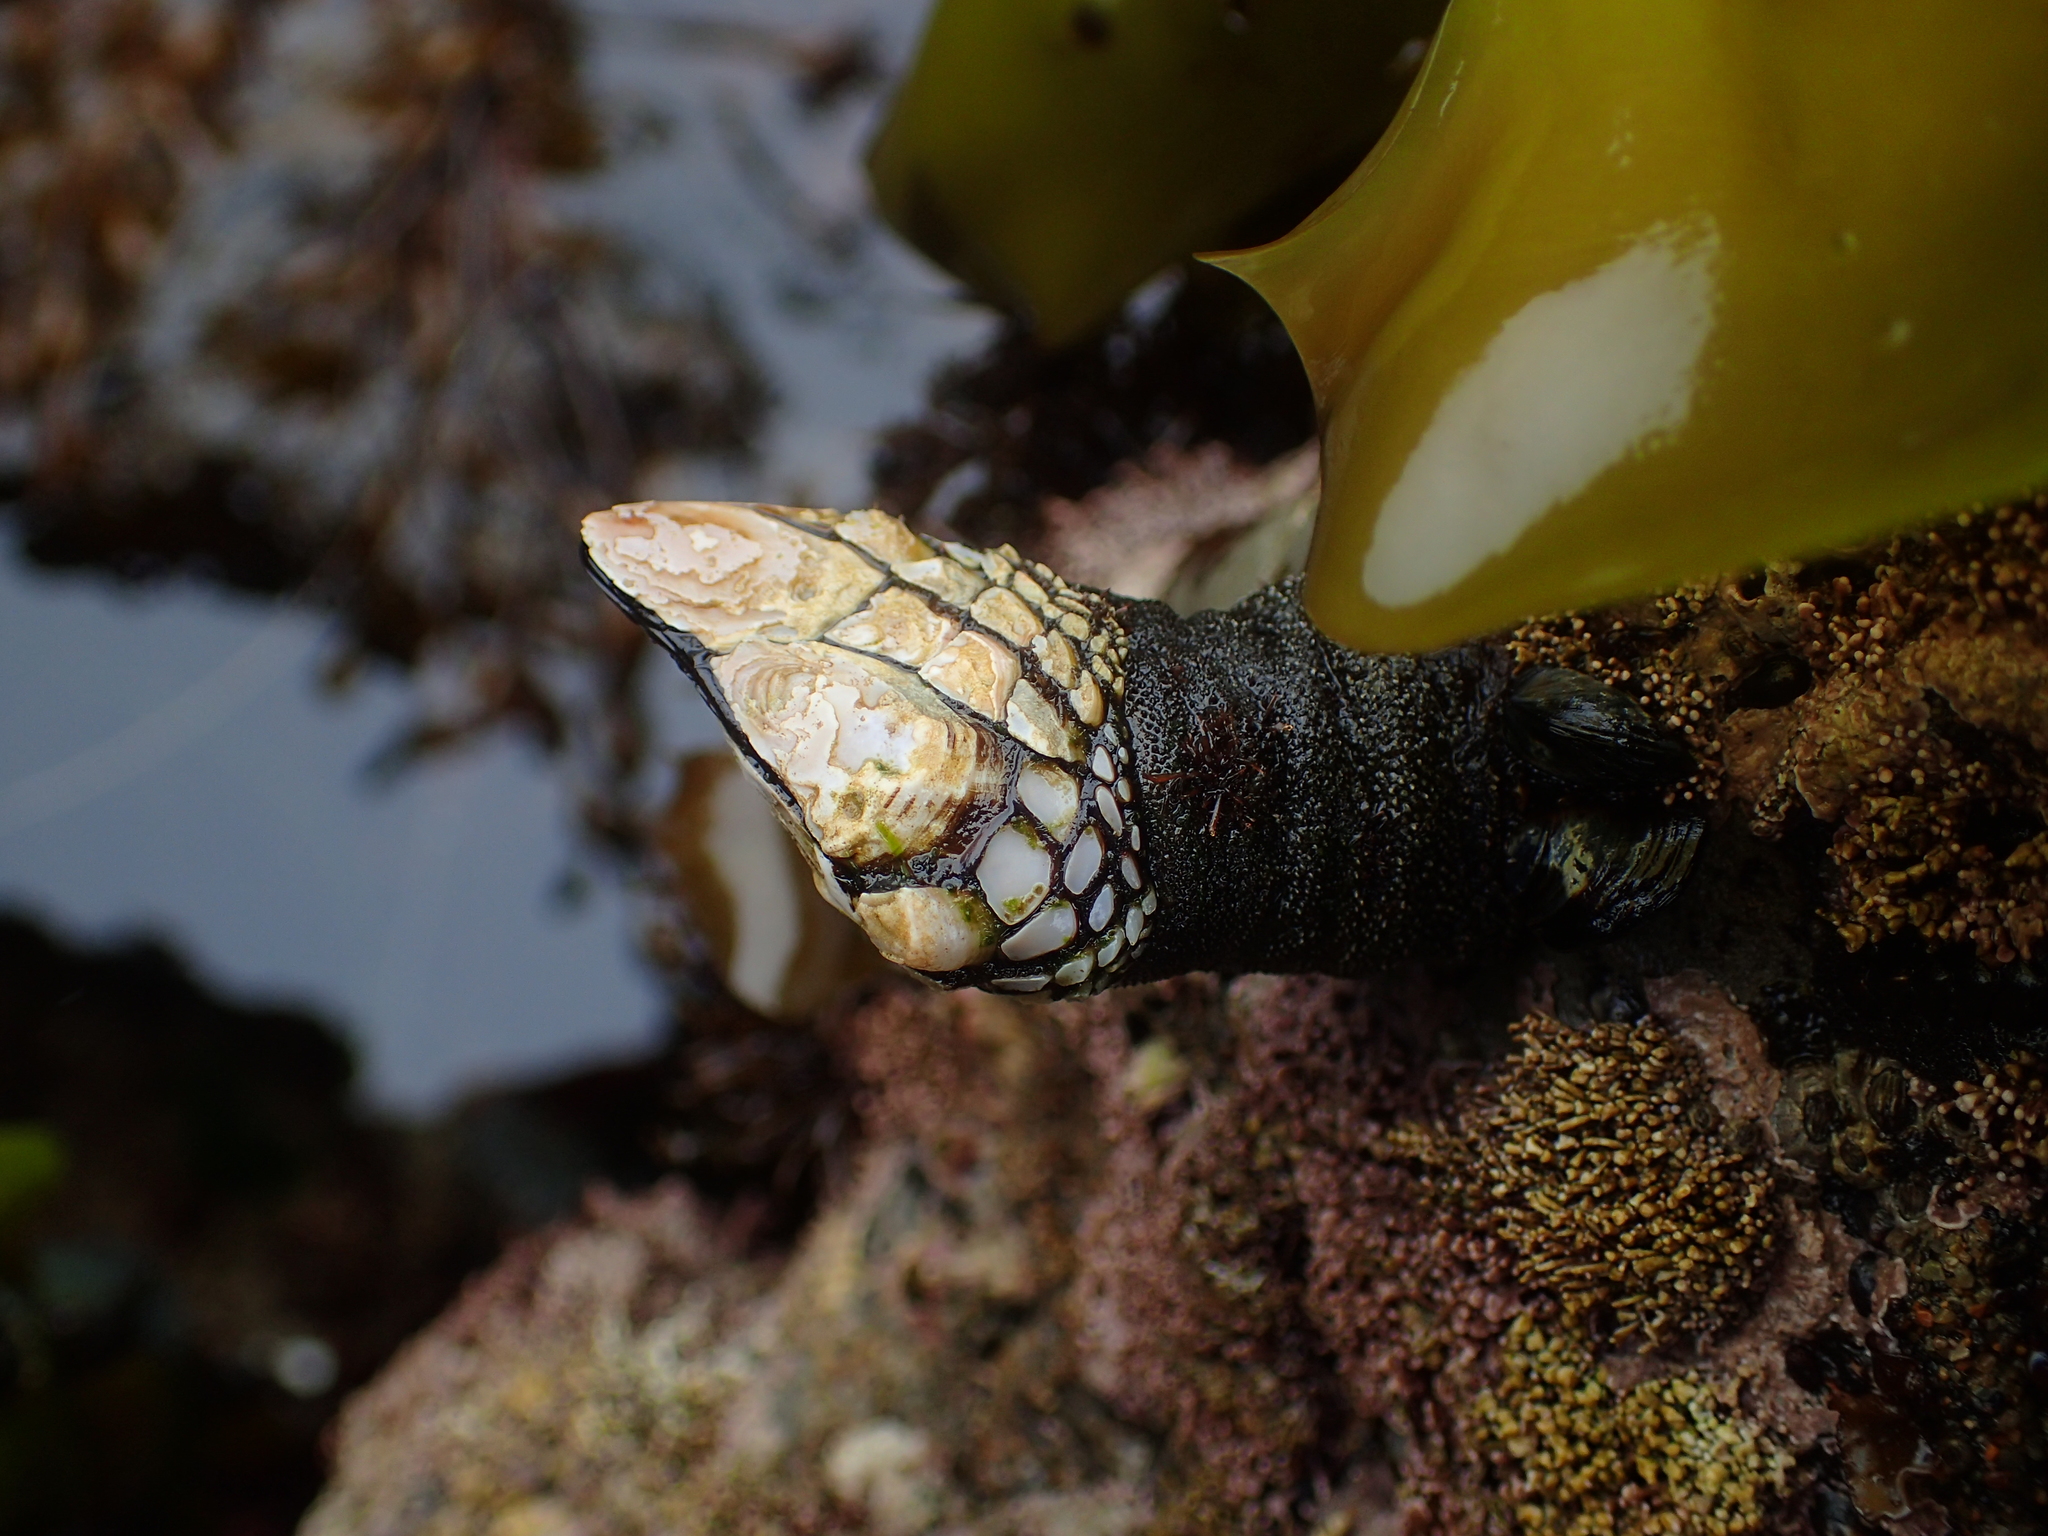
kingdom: Animalia
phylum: Arthropoda
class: Maxillopoda
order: Pedunculata
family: Pollicipedidae
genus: Pollicipes
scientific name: Pollicipes polymerus
